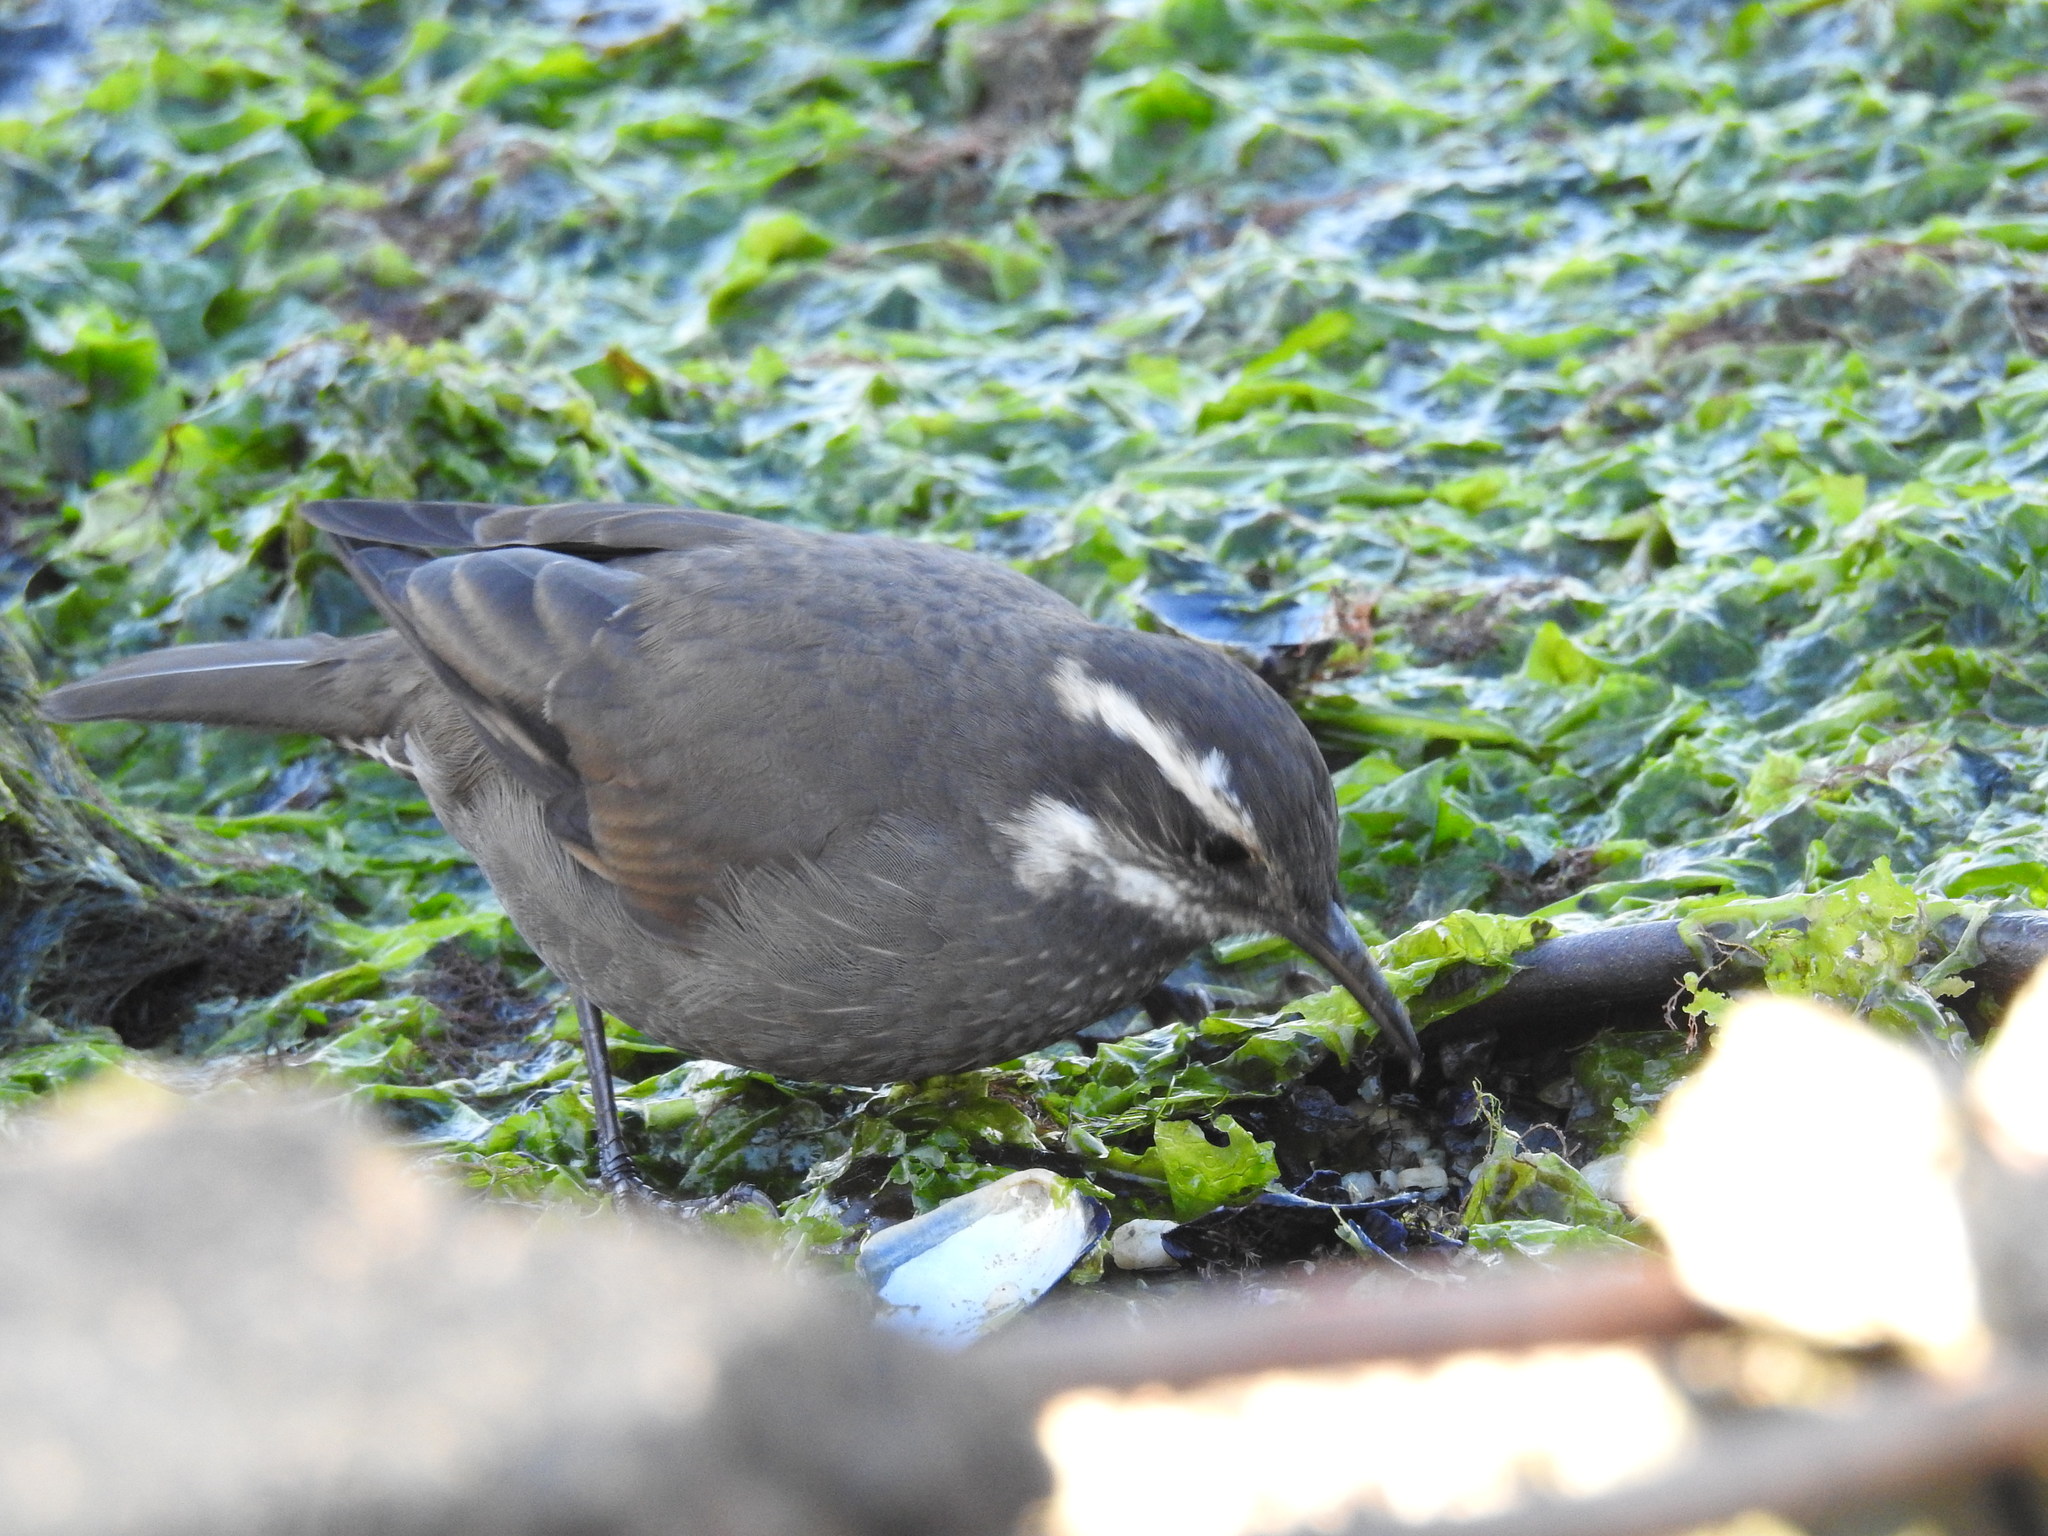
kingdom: Animalia
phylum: Chordata
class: Aves
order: Passeriformes
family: Furnariidae
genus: Cinclodes
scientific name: Cinclodes patagonicus
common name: Dark-bellied cinclodes
